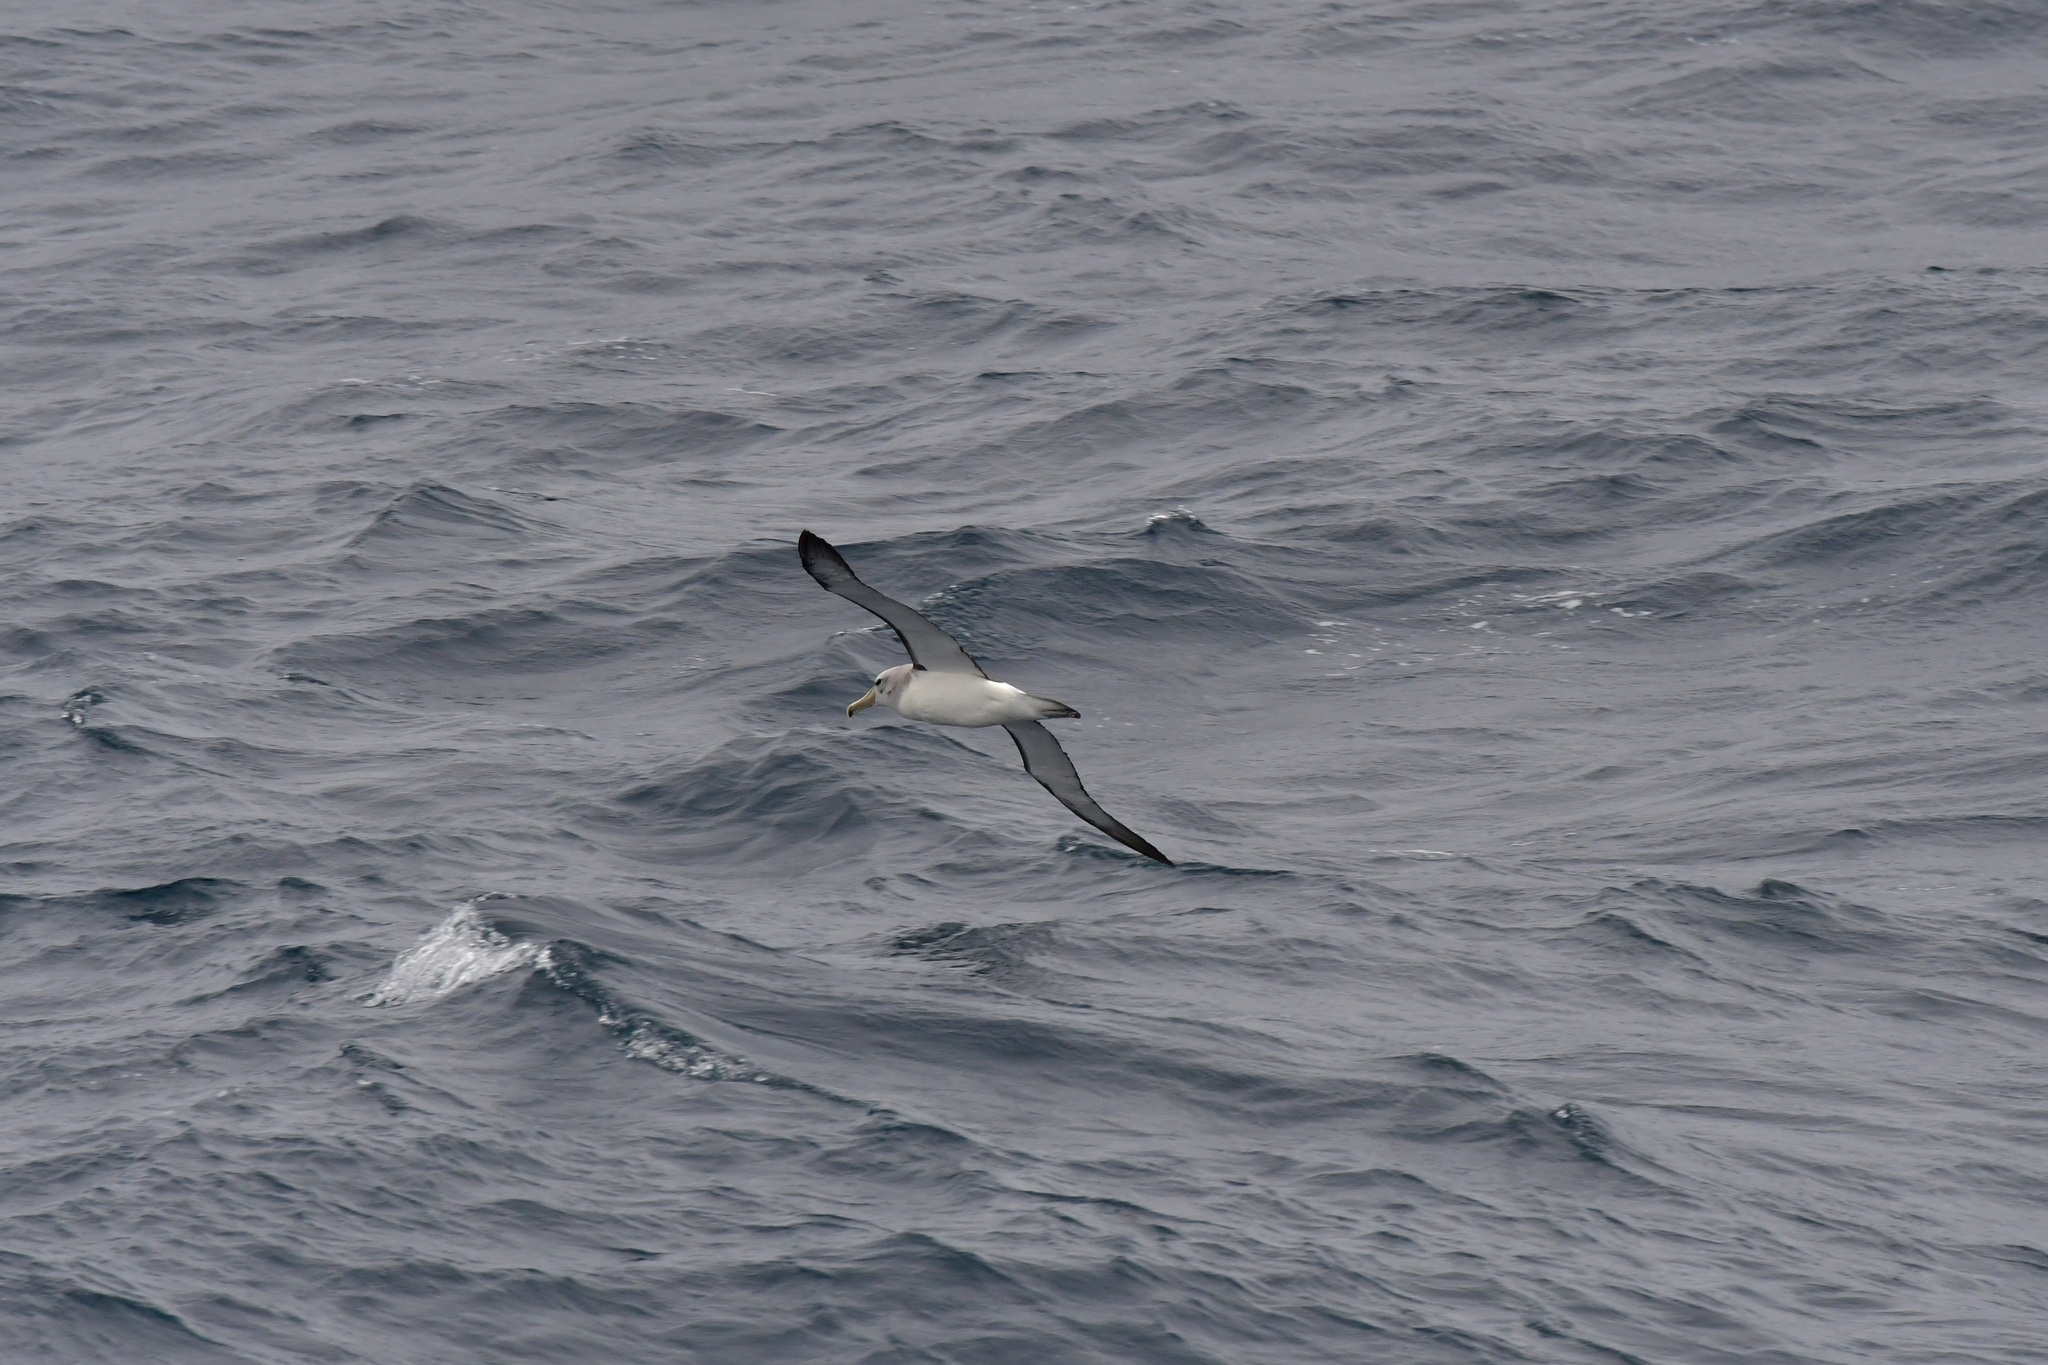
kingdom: Animalia
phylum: Chordata
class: Aves
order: Procellariiformes
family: Diomedeidae
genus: Thalassarche
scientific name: Thalassarche salvini
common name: Salvin's albatross
